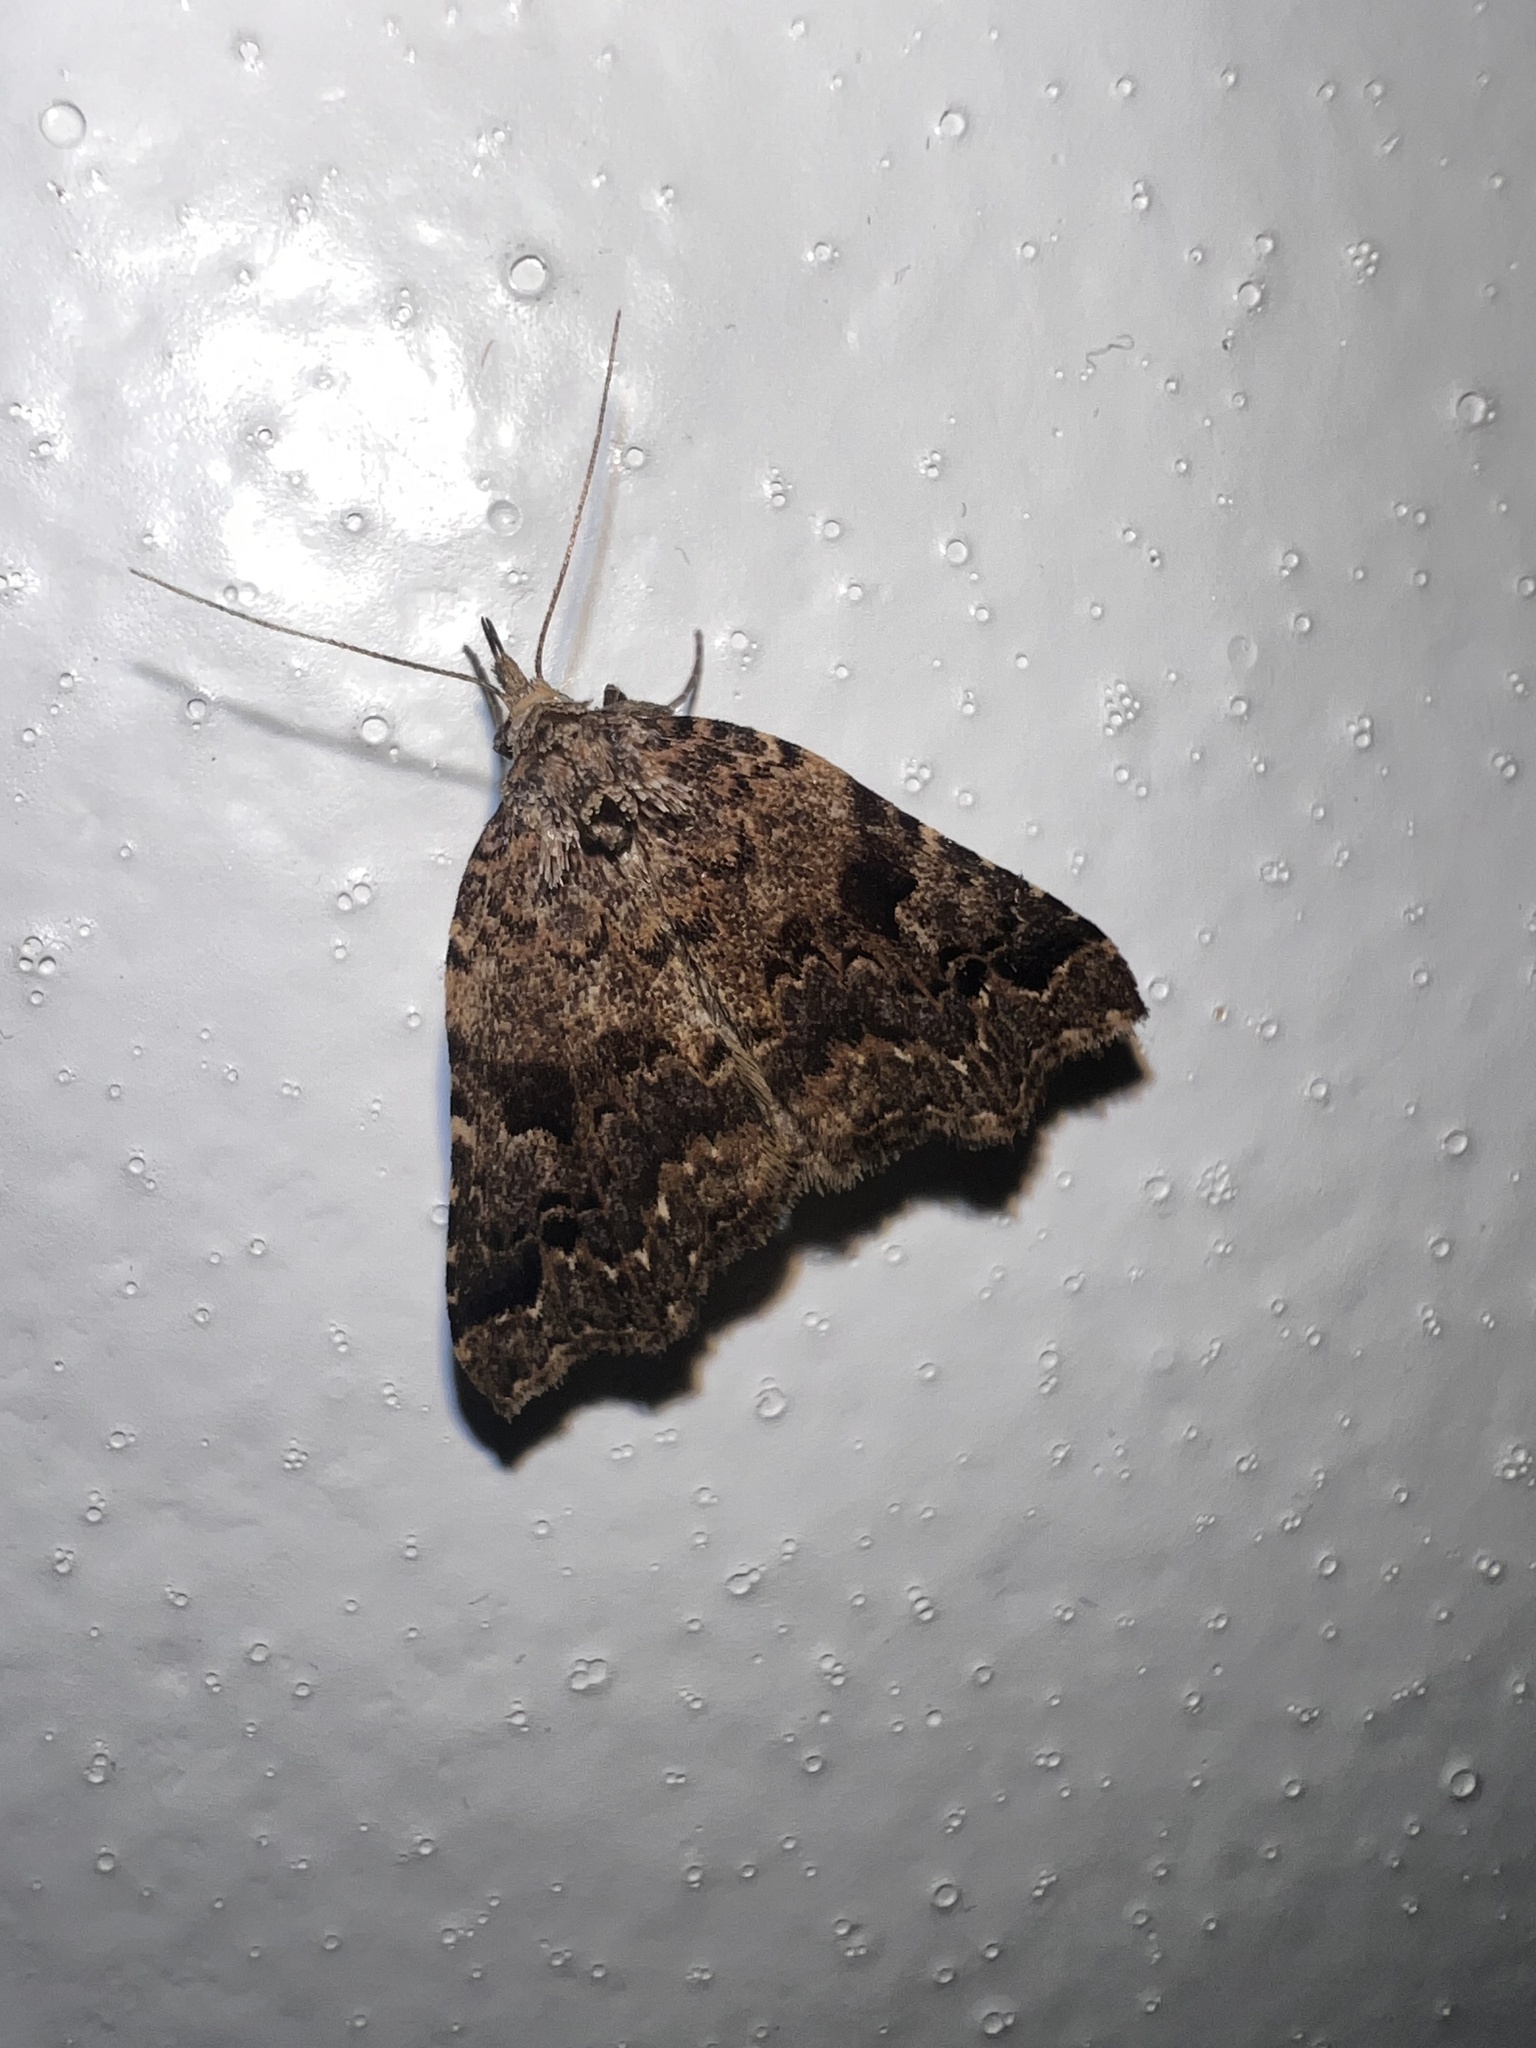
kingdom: Animalia
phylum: Arthropoda
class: Insecta
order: Lepidoptera
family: Erebidae
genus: Trigonistis
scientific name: Trigonistis
